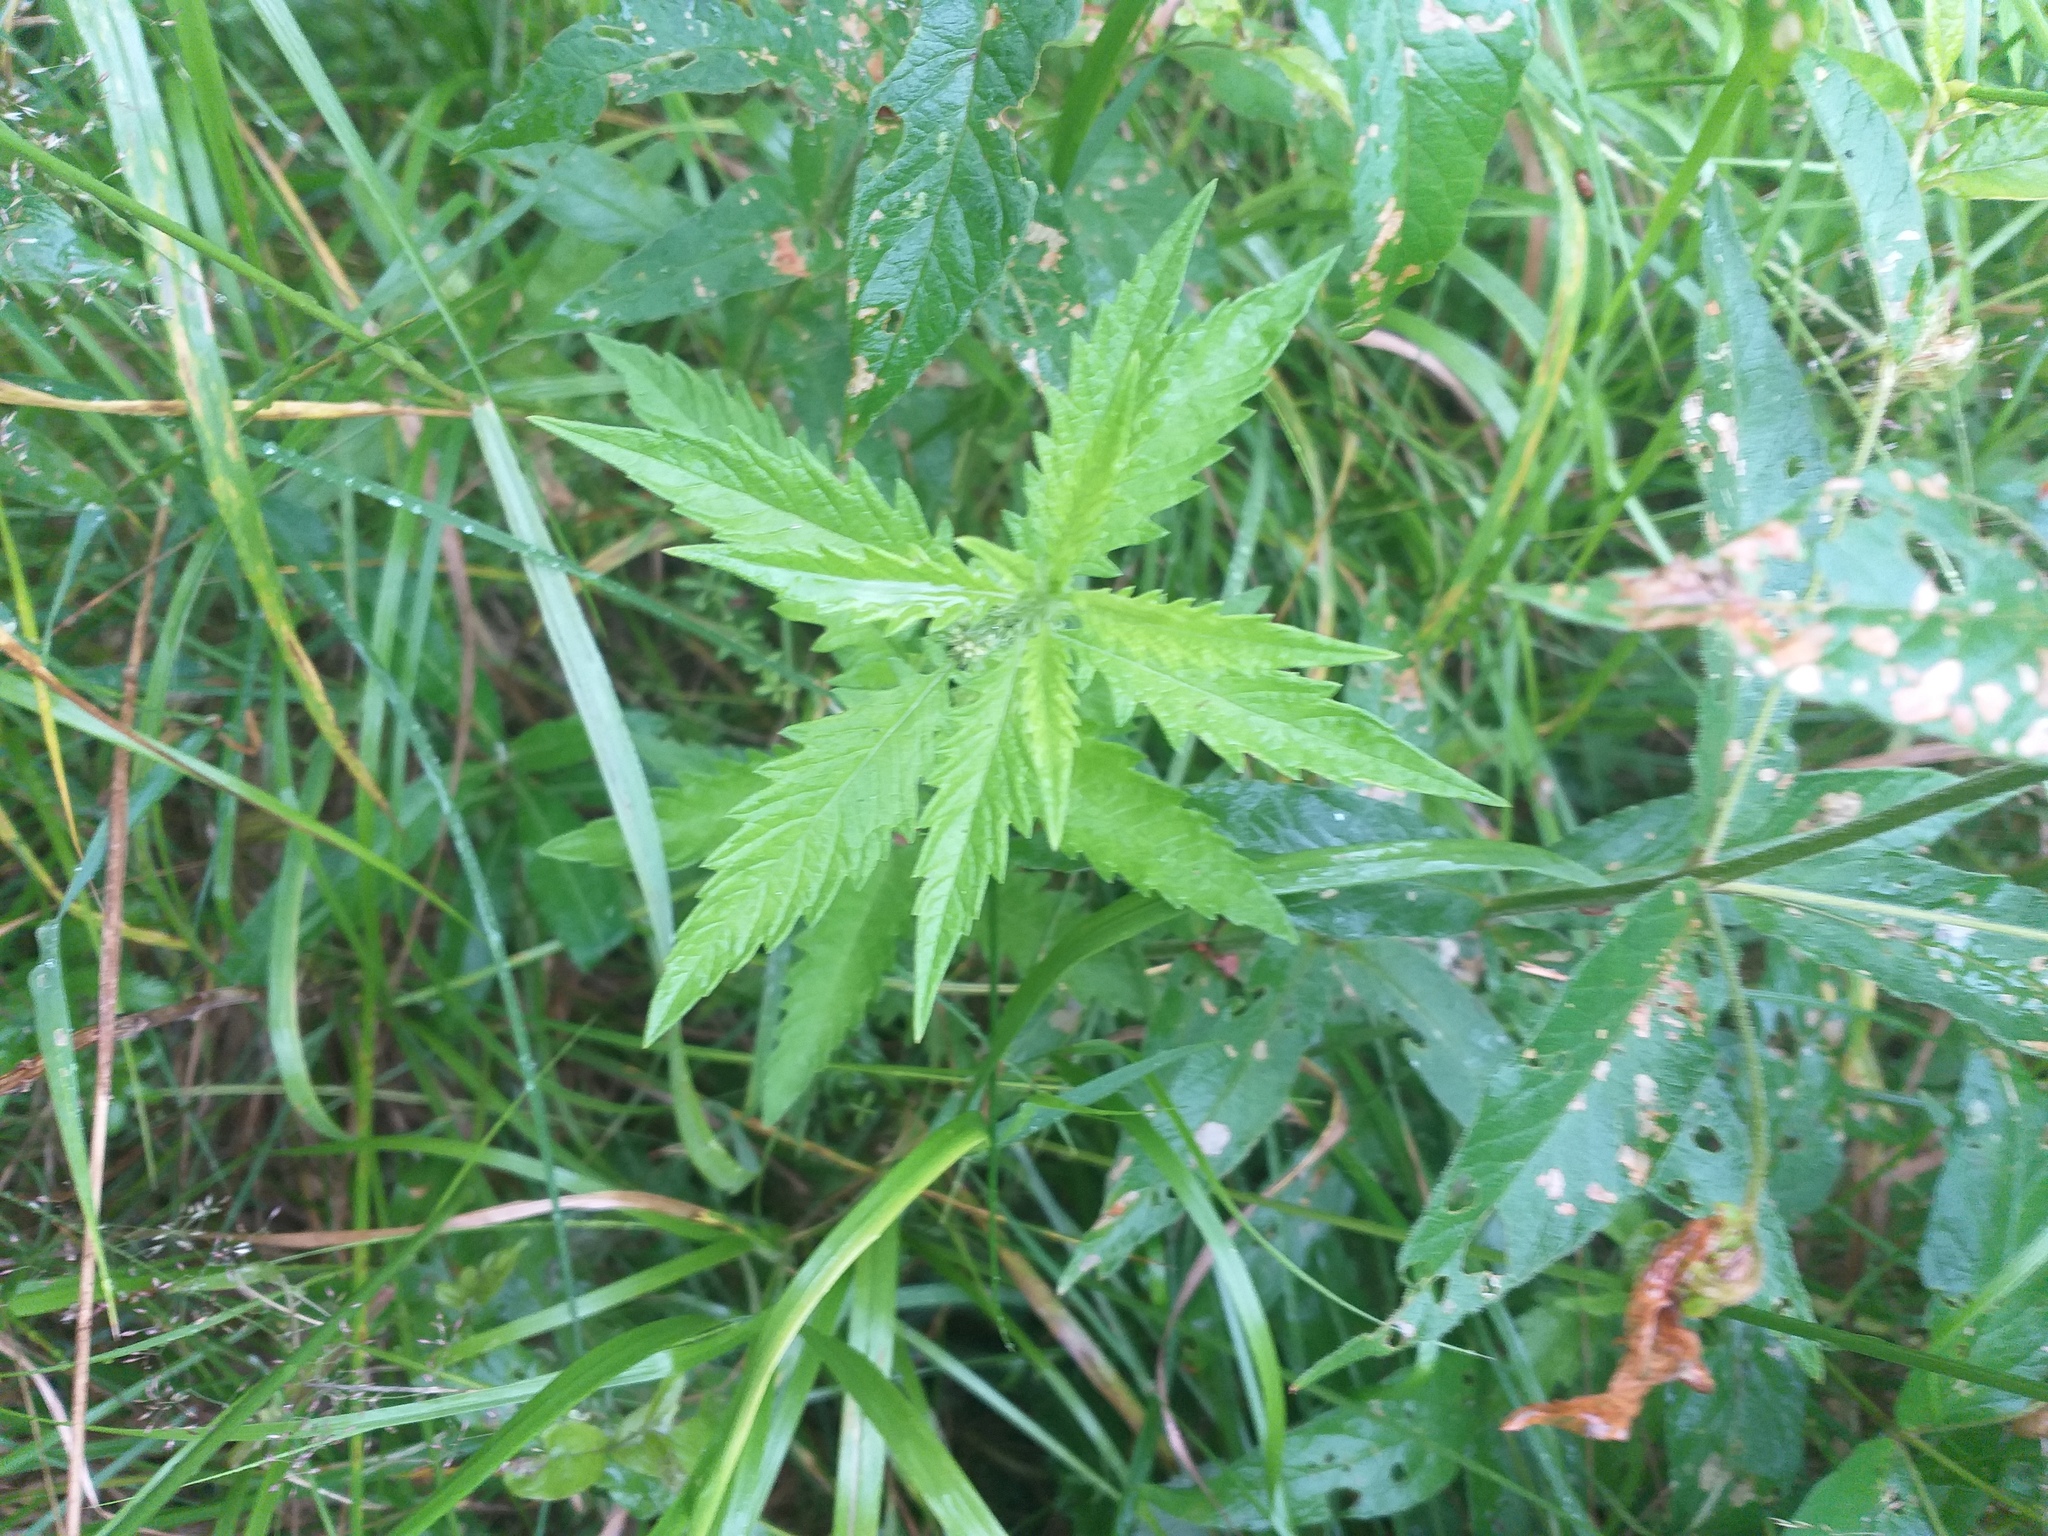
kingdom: Plantae
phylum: Tracheophyta
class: Magnoliopsida
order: Lamiales
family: Lamiaceae
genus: Lycopus
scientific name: Lycopus europaeus
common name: European bugleweed
